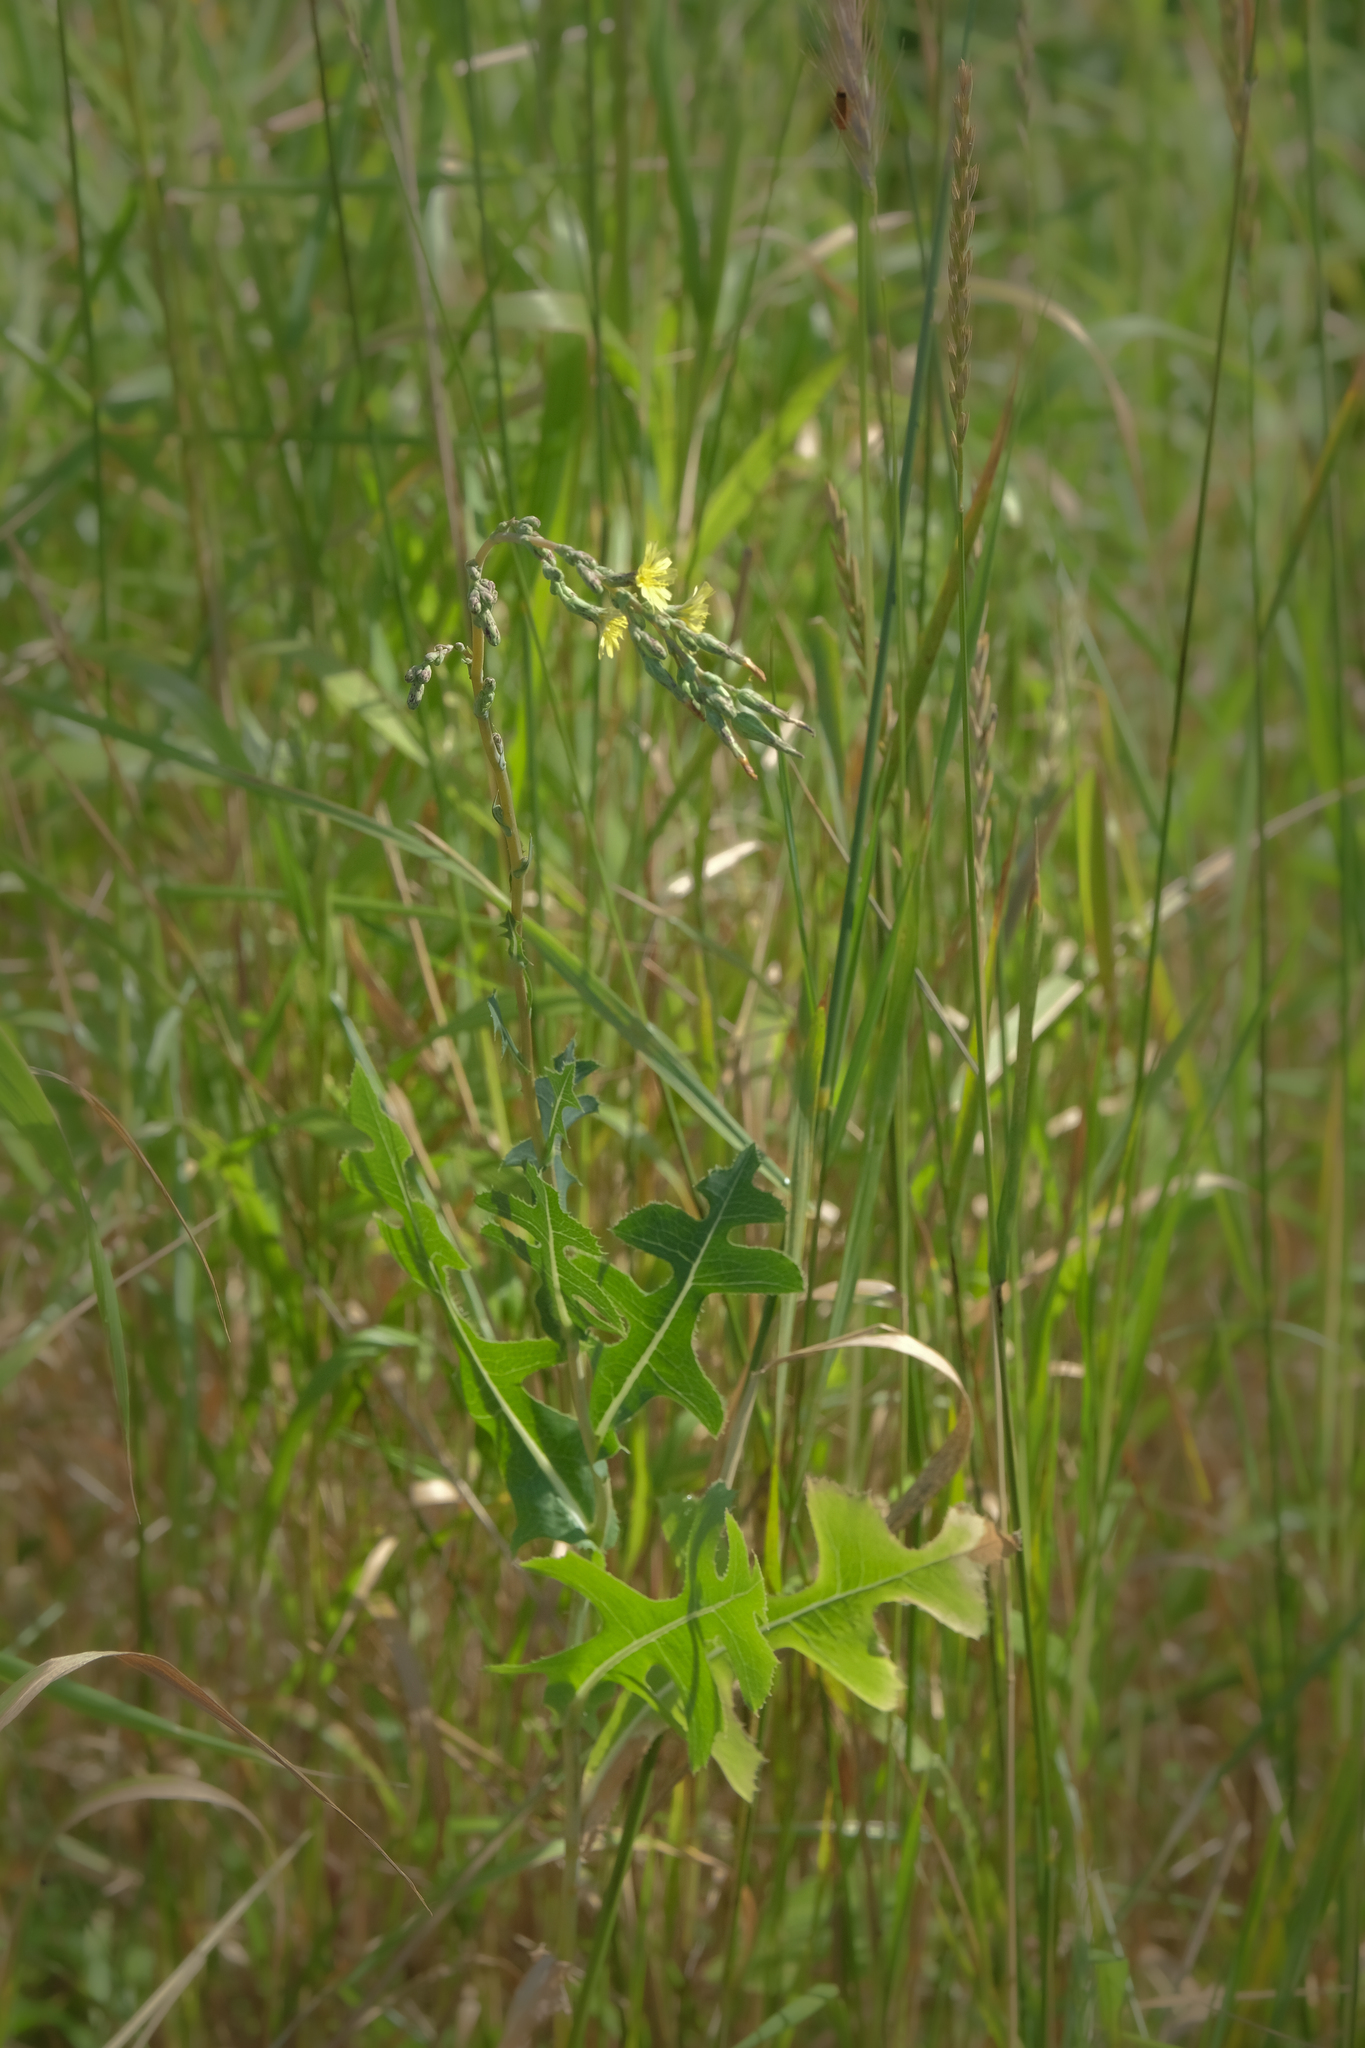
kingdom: Plantae
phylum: Tracheophyta
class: Magnoliopsida
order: Asterales
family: Asteraceae
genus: Lactuca
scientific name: Lactuca serriola
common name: Prickly lettuce
